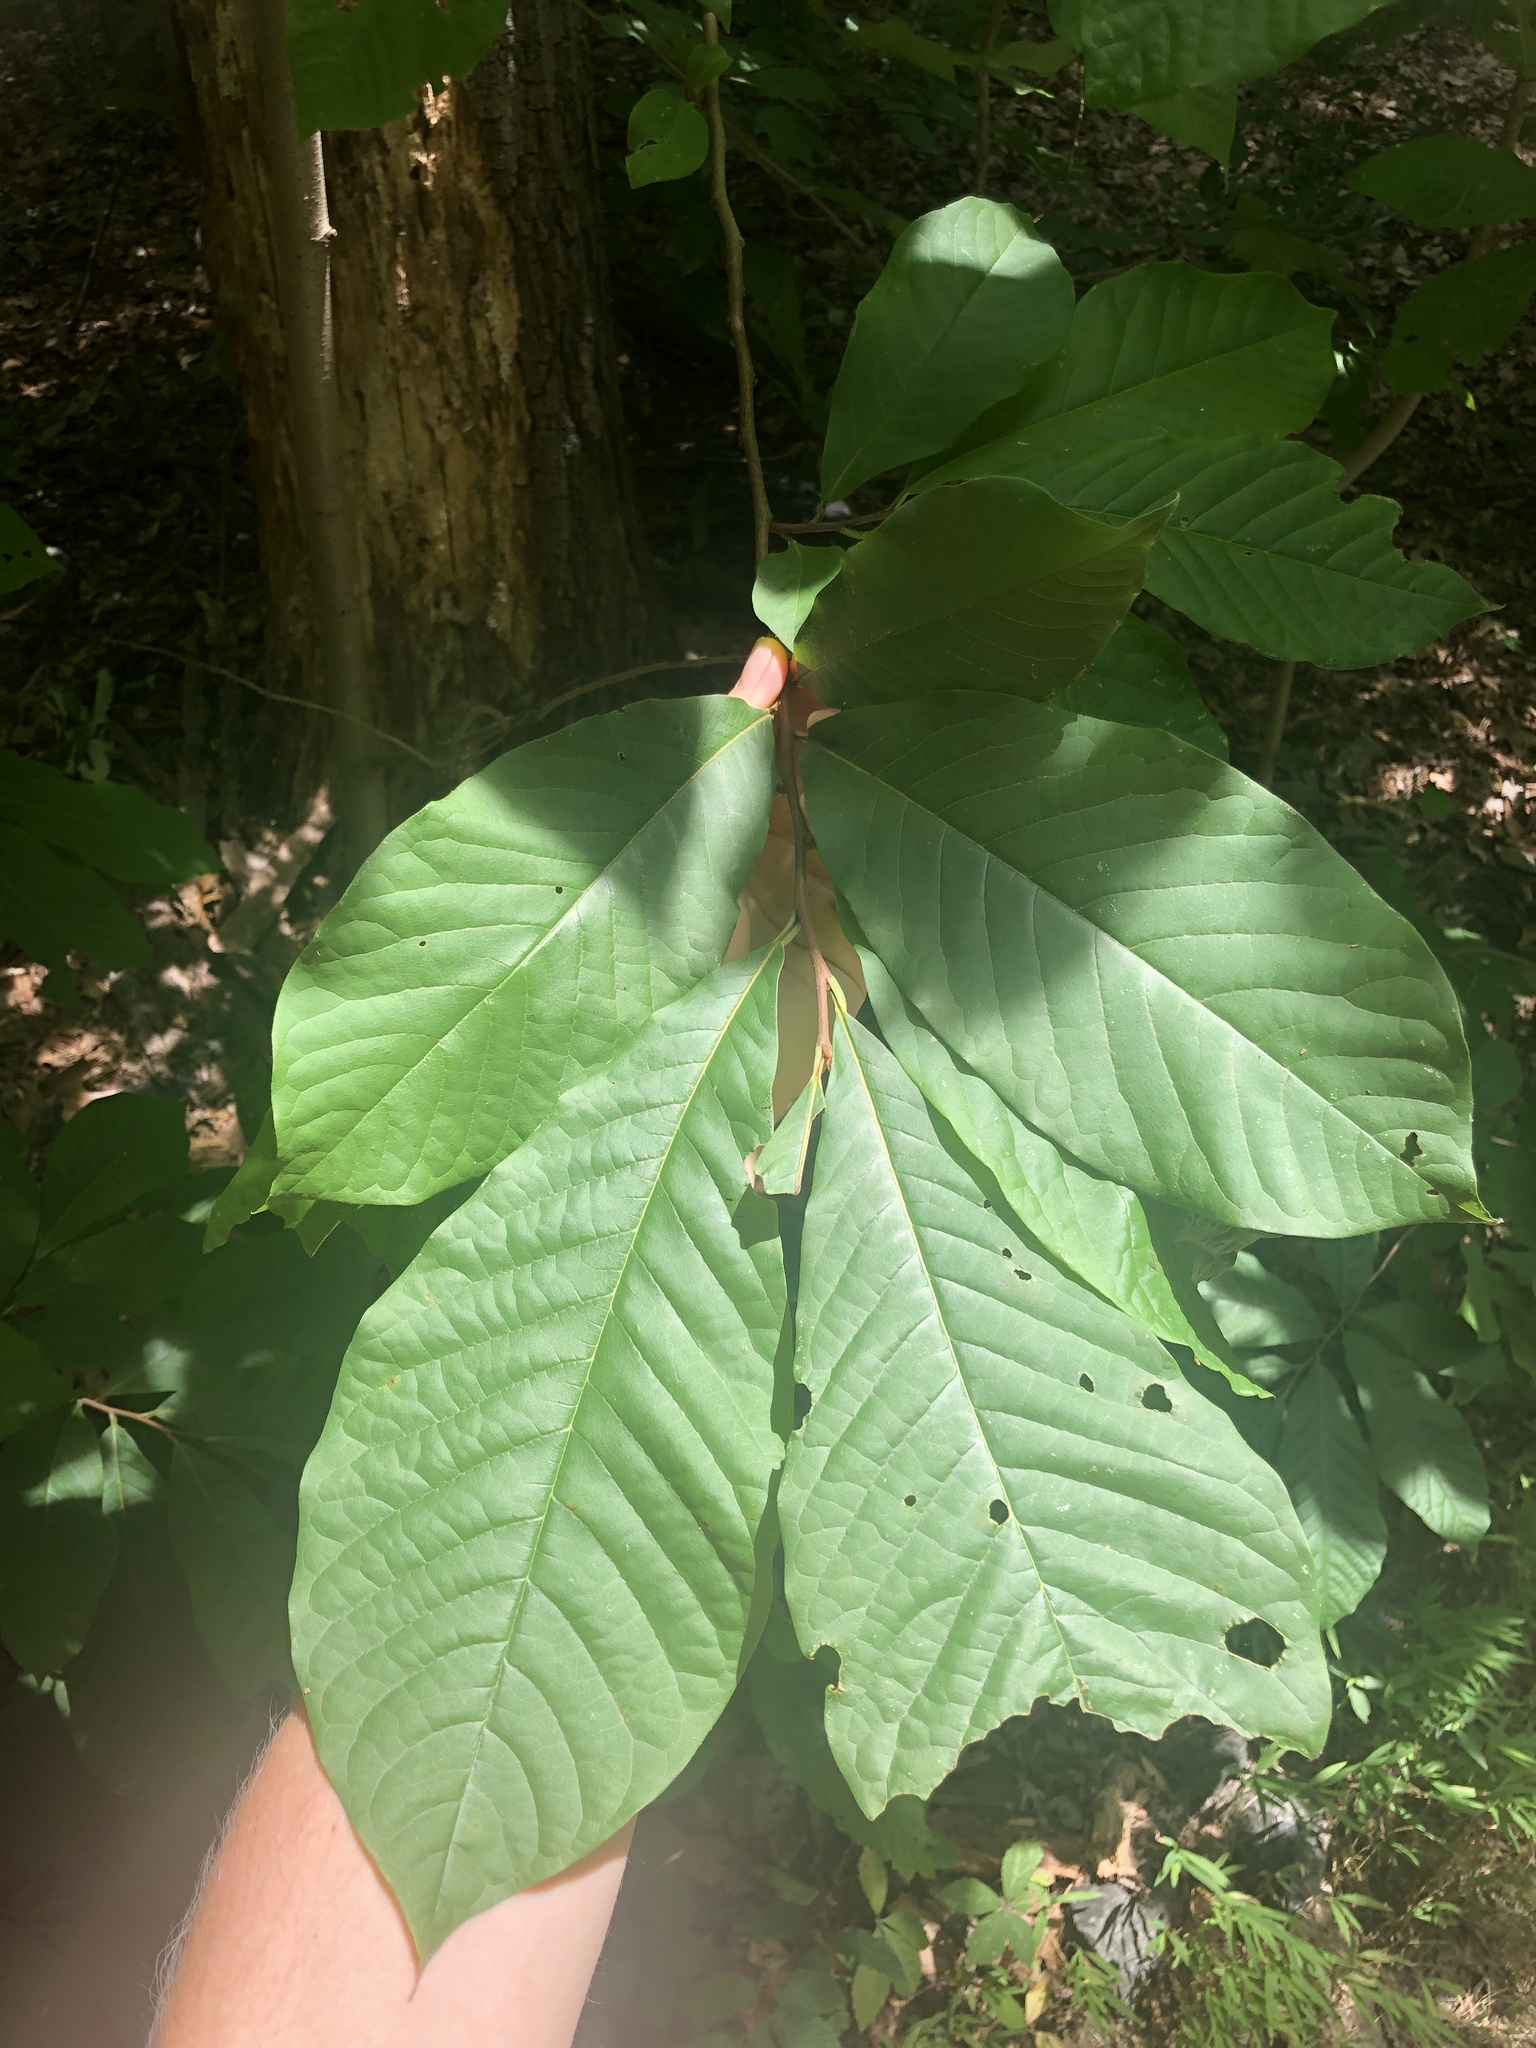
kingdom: Plantae
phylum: Tracheophyta
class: Magnoliopsida
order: Magnoliales
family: Annonaceae
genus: Asimina
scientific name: Asimina triloba
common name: Dog-banana
